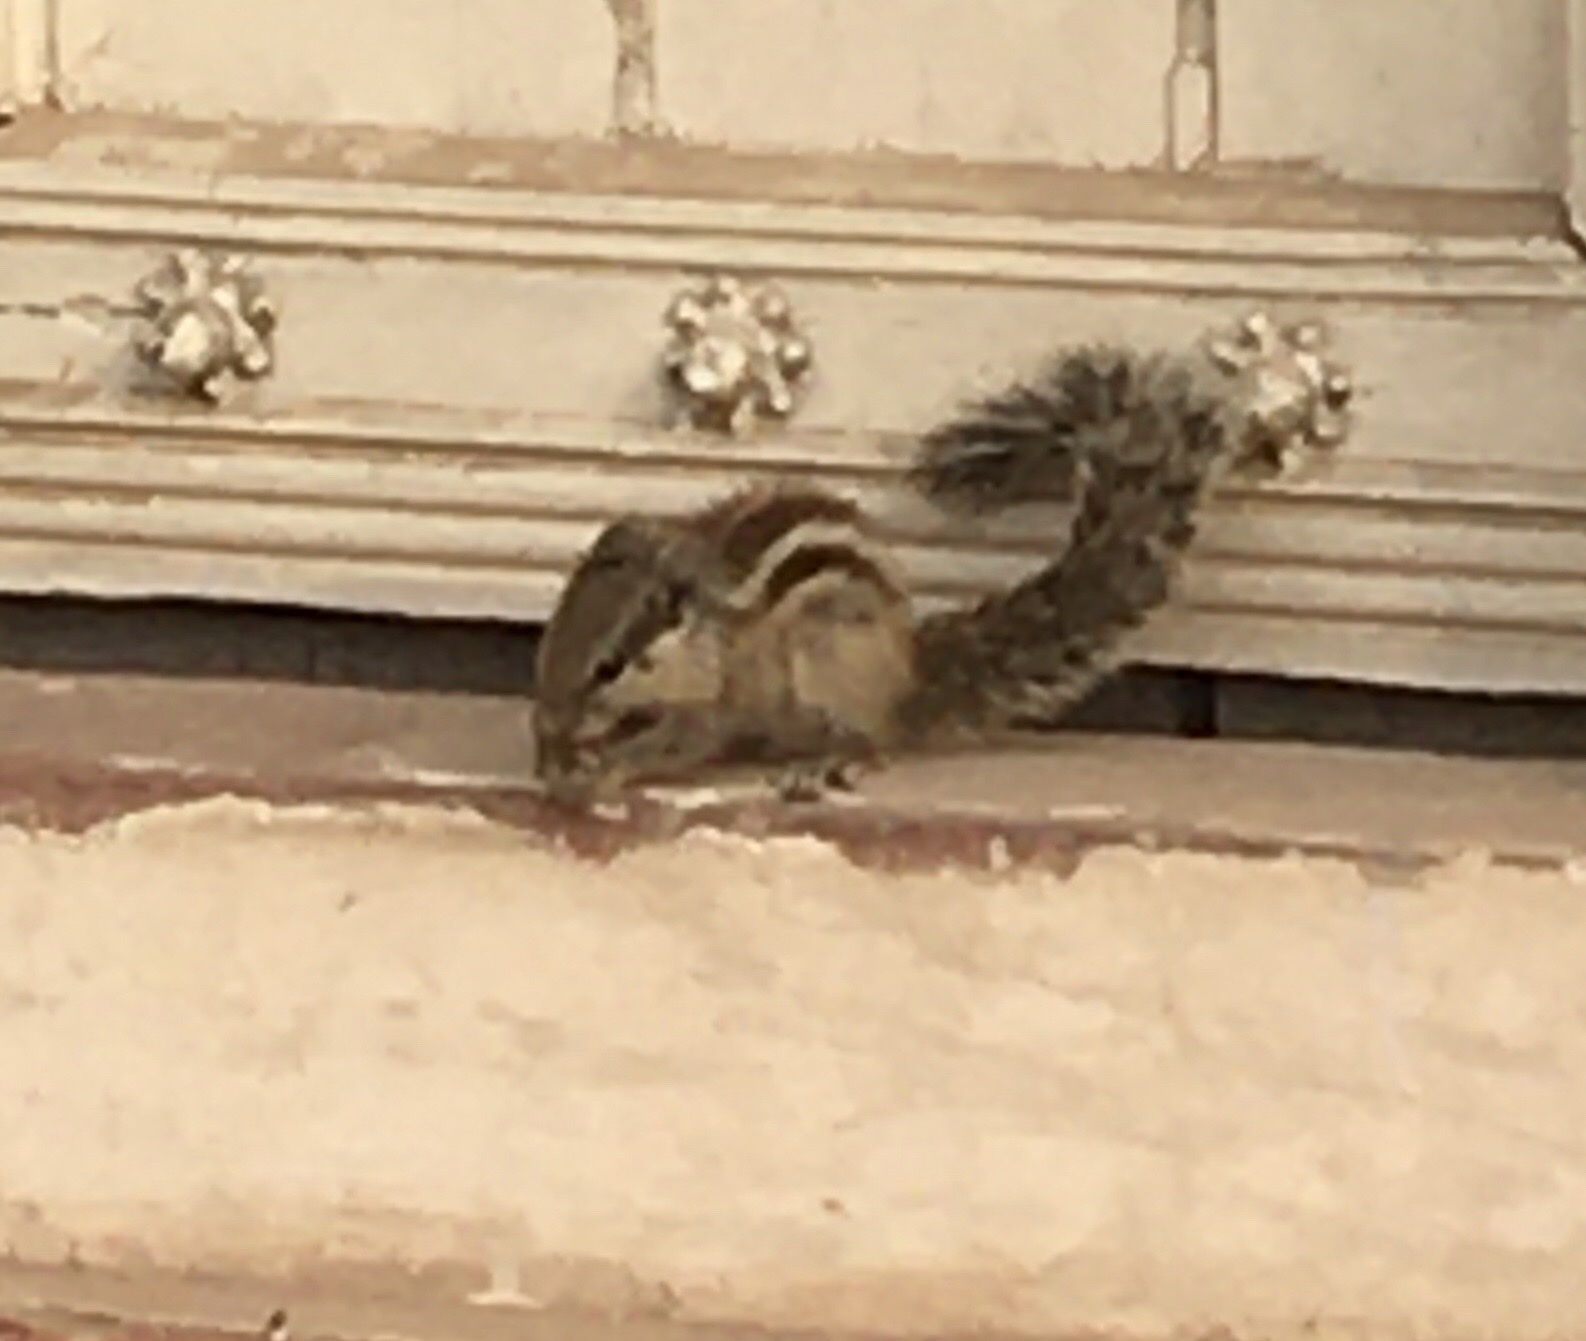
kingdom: Animalia
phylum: Chordata
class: Mammalia
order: Rodentia
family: Sciuridae
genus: Funambulus
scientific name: Funambulus pennantii
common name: Northern palm squirrel
